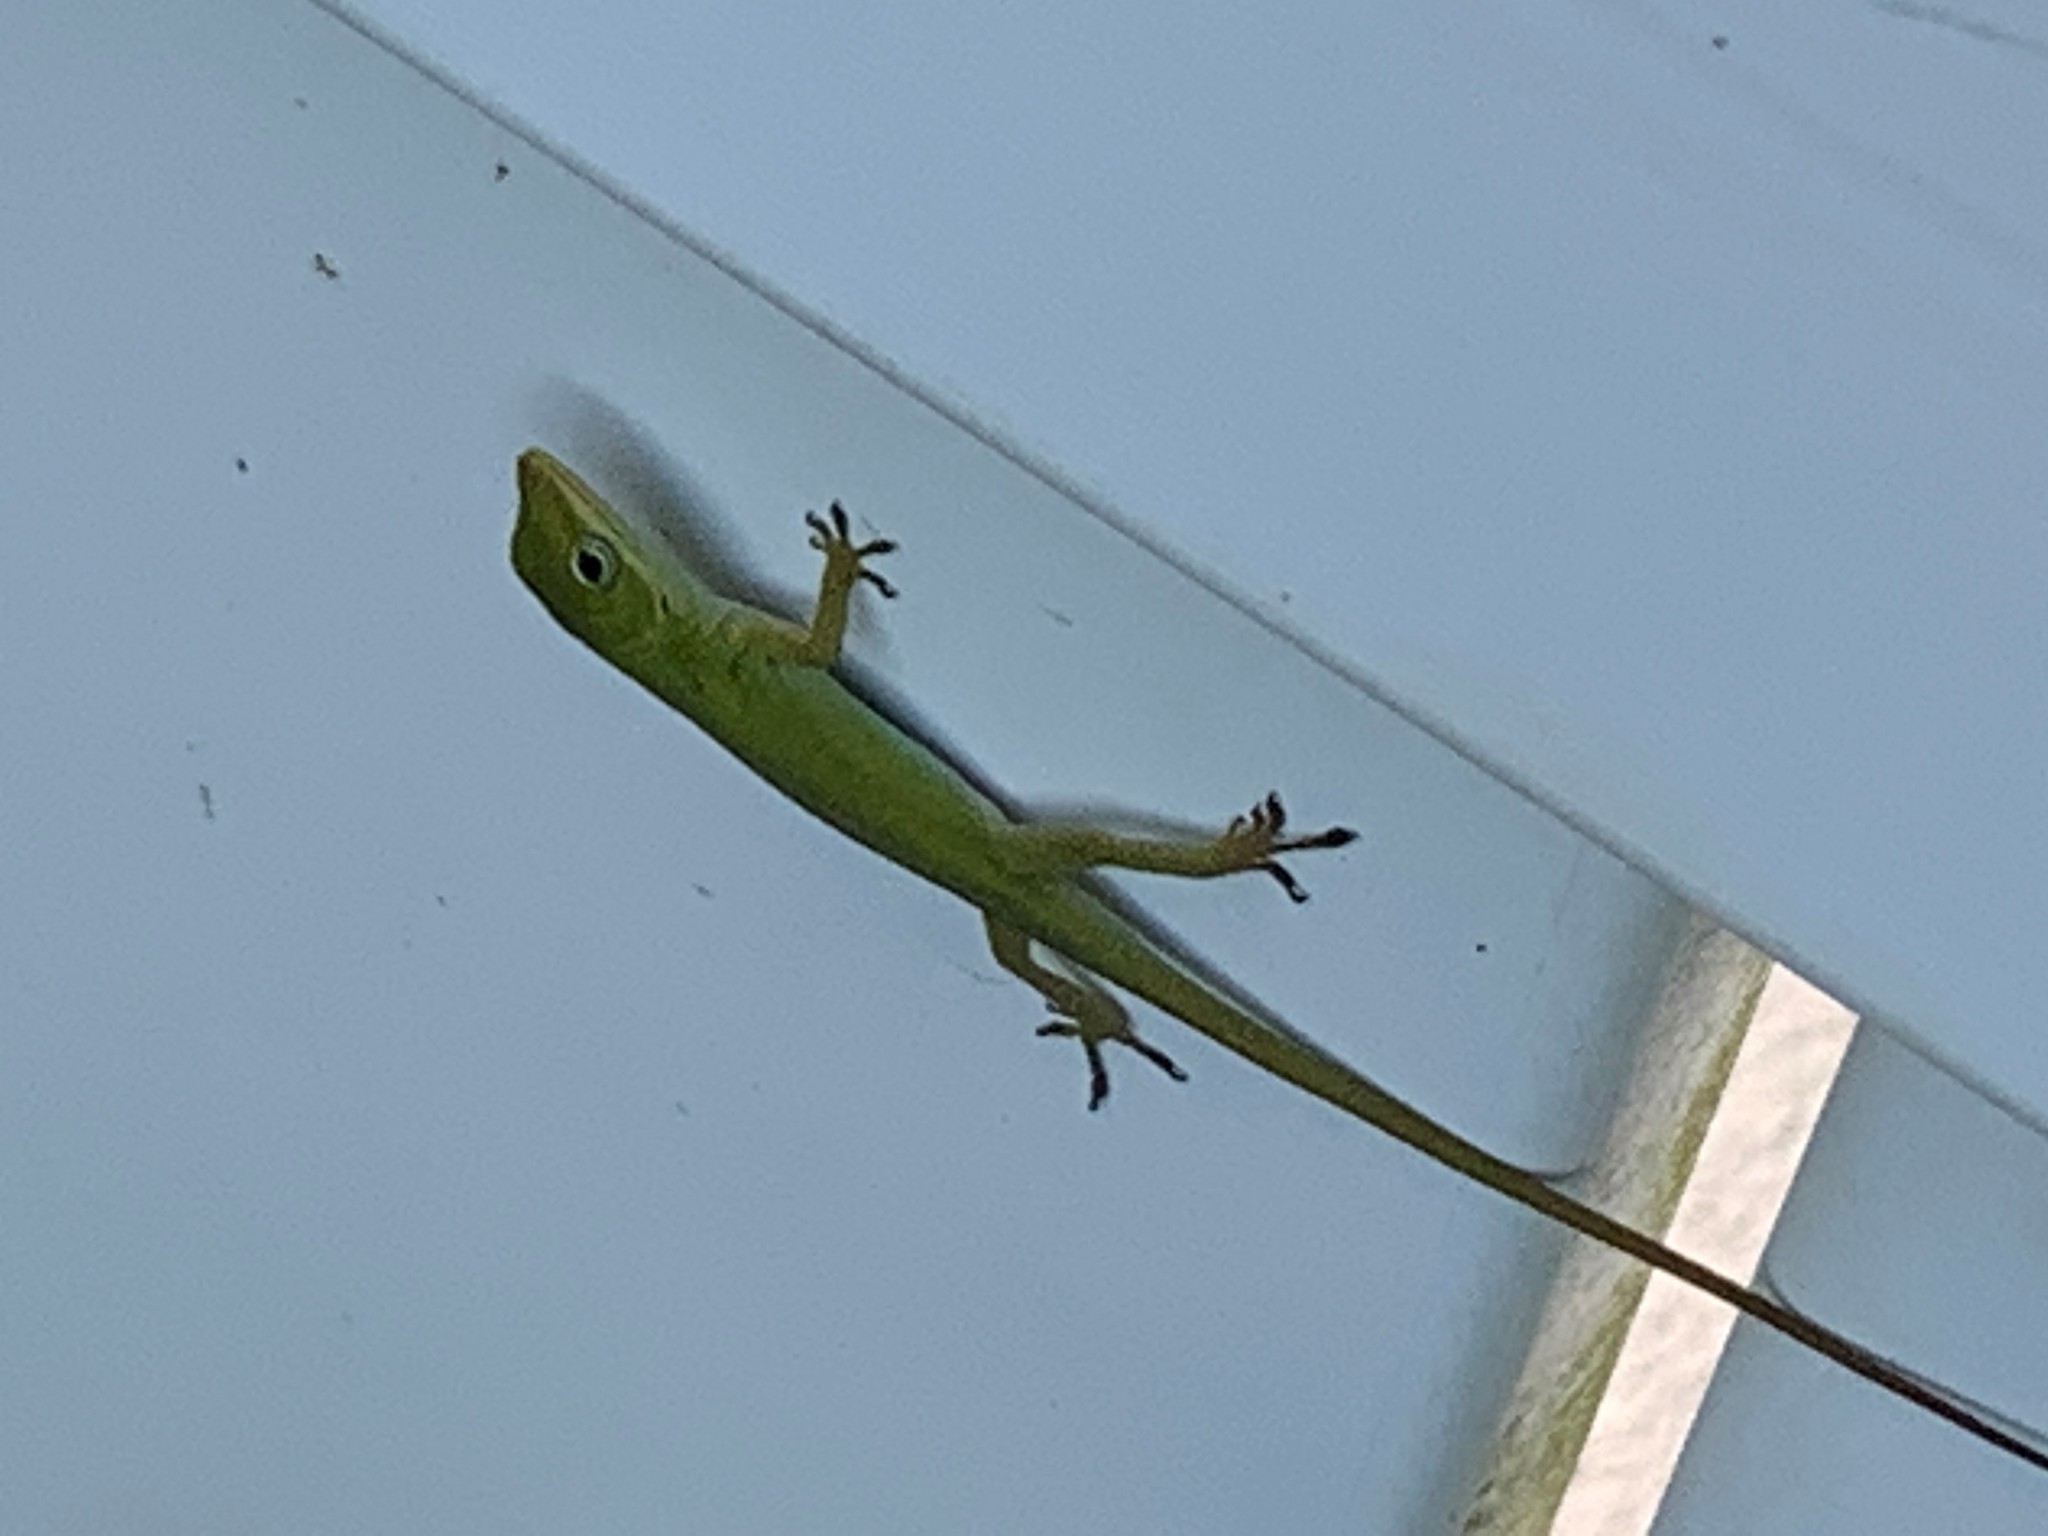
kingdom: Animalia
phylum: Chordata
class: Squamata
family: Dactyloidae
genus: Anolis
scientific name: Anolis carolinensis
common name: Green anole
